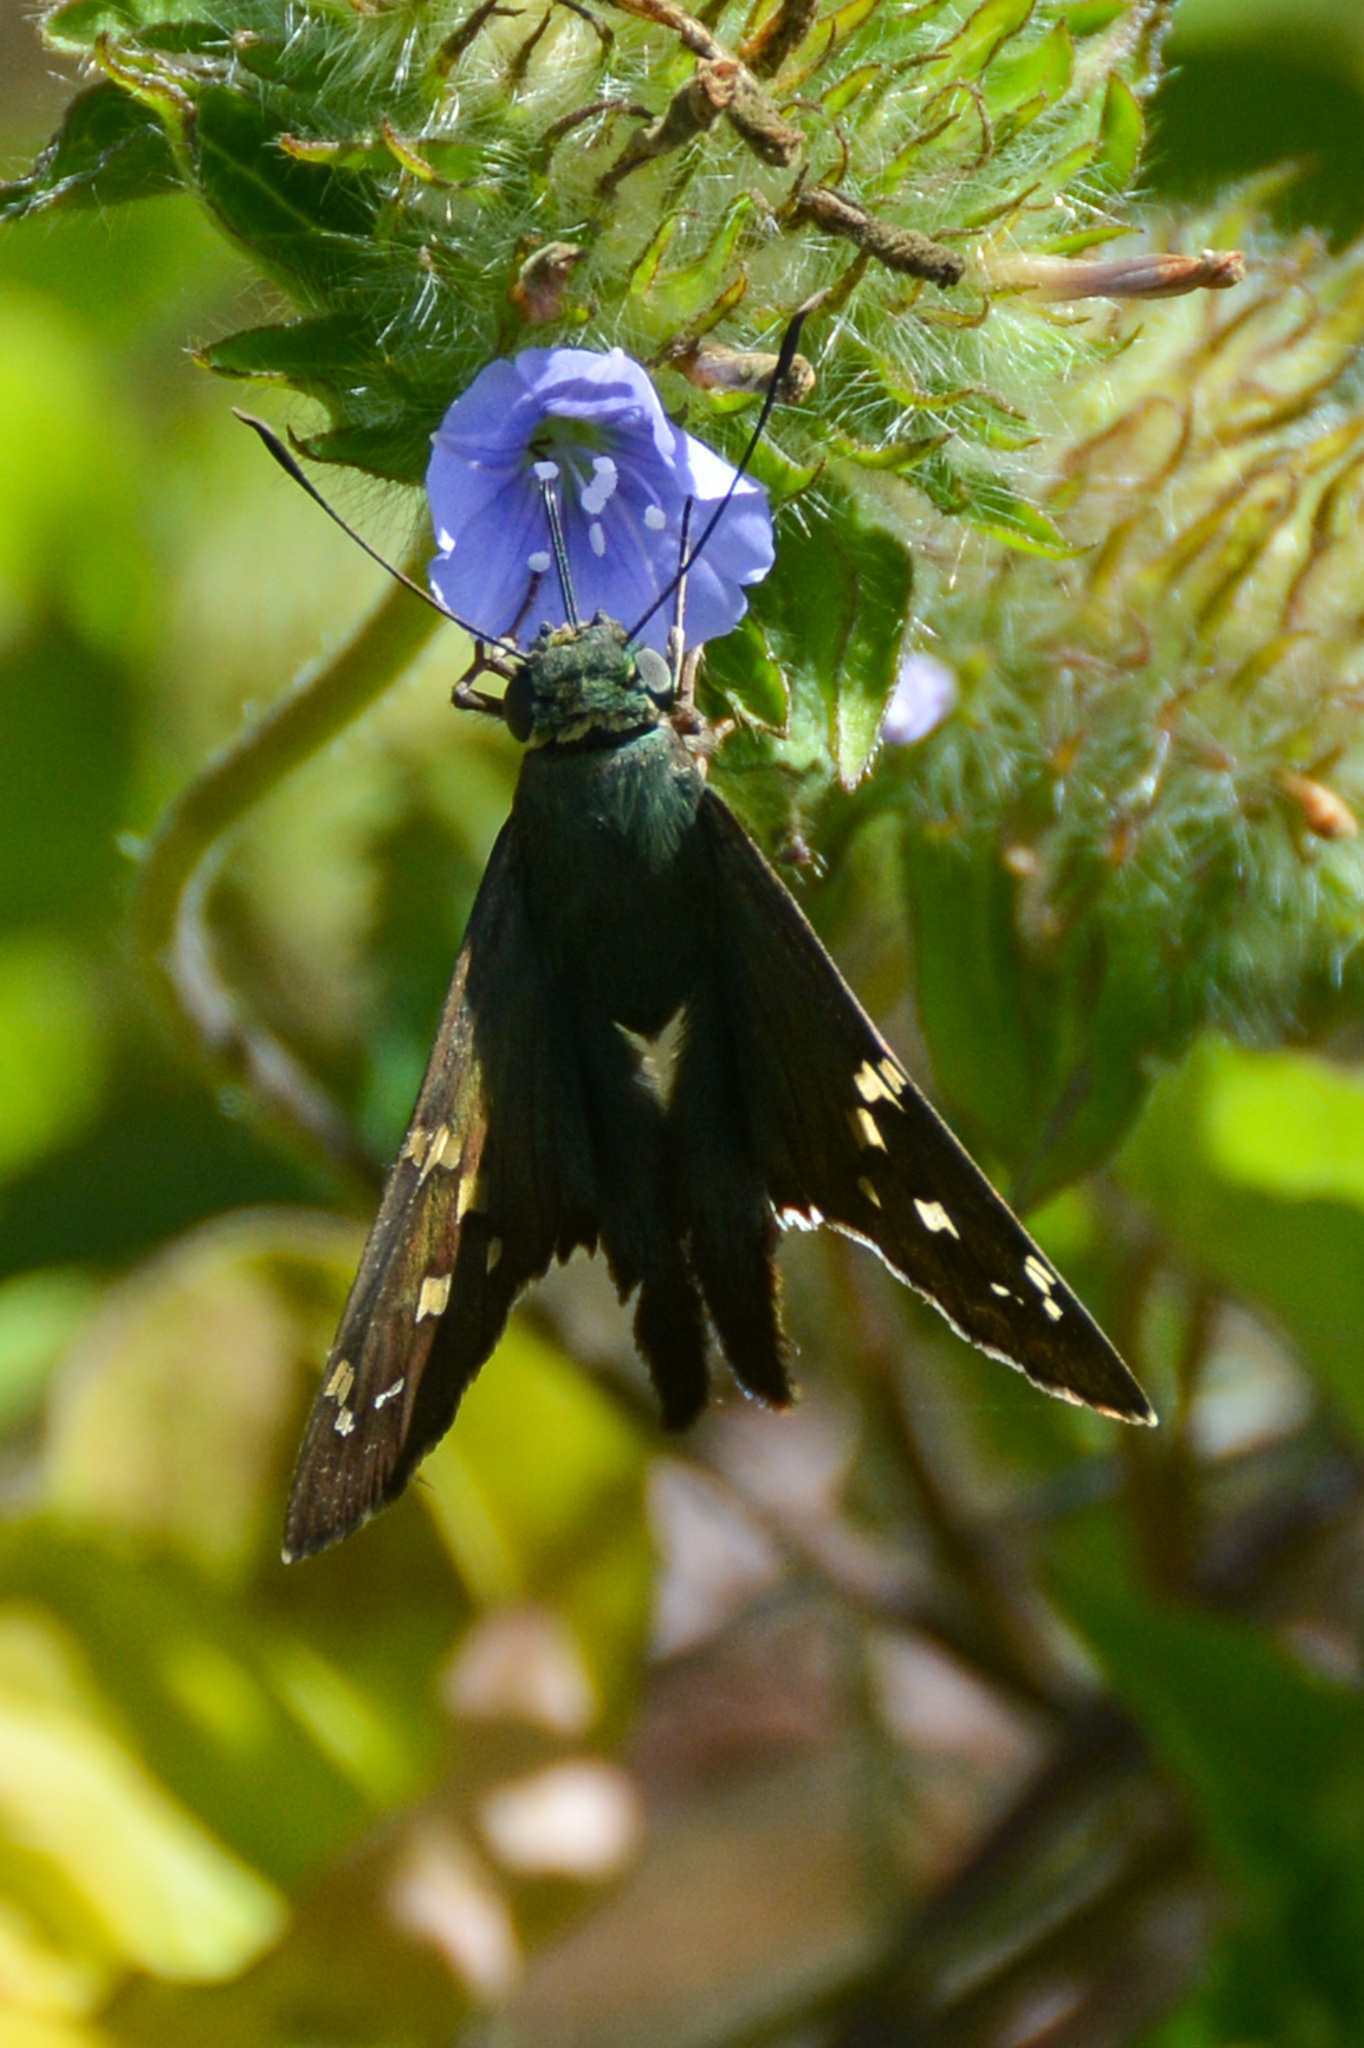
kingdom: Animalia
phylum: Arthropoda
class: Insecta
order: Lepidoptera
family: Hesperiidae
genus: Urbanus
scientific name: Urbanus proteus
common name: Long-tailed skipper
